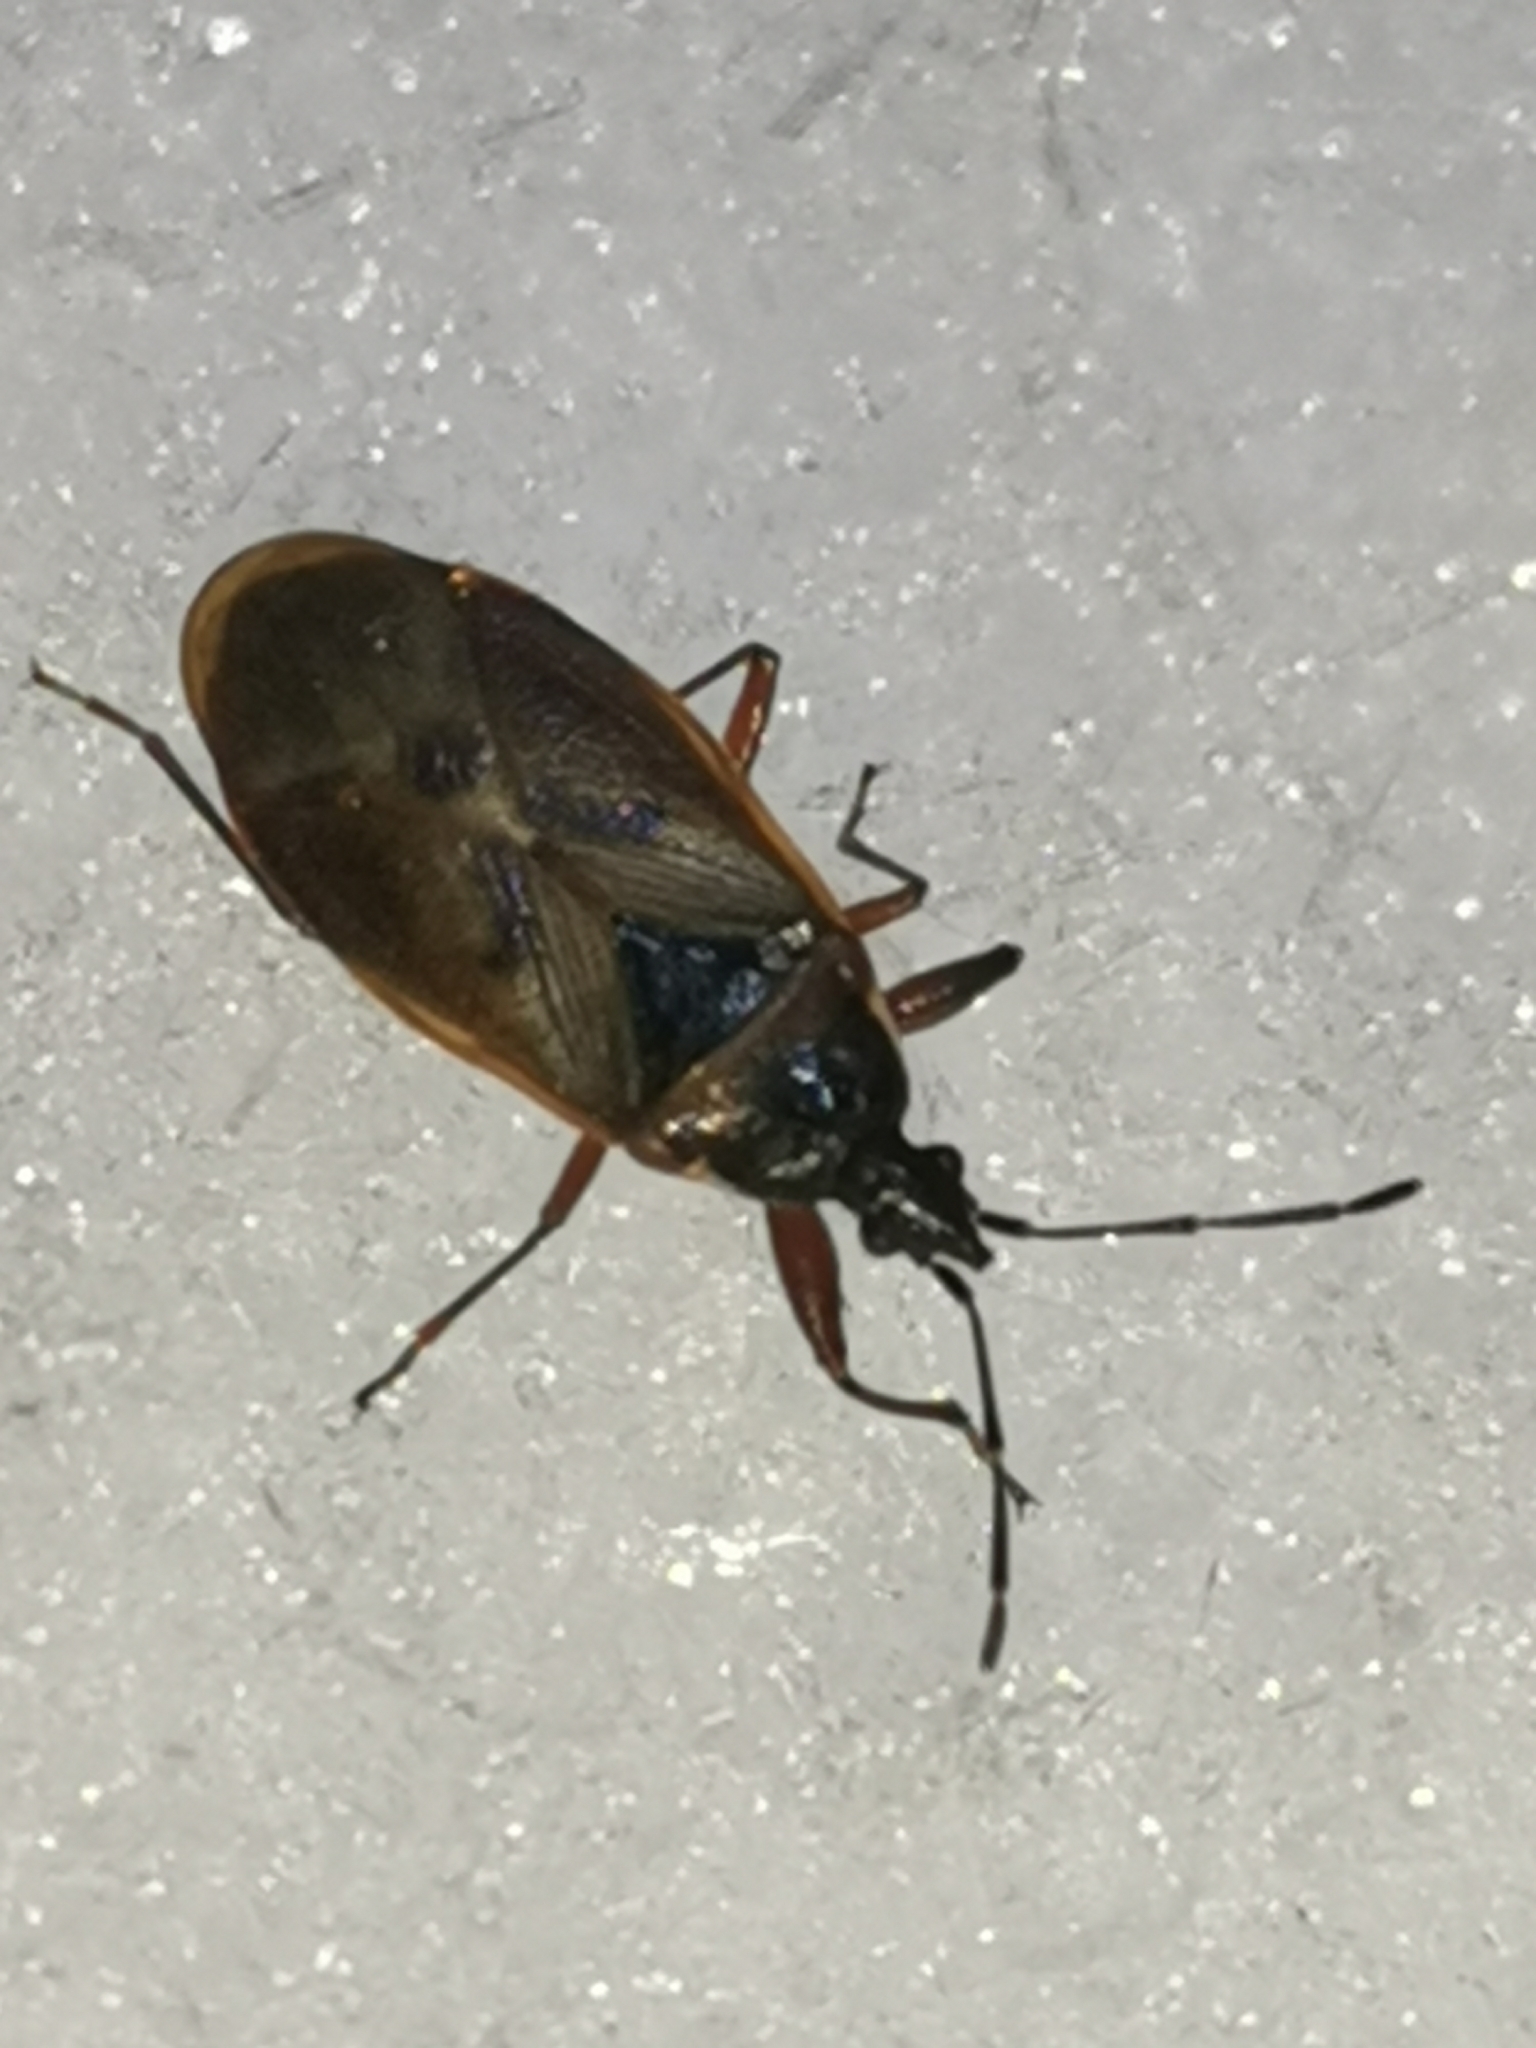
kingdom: Animalia
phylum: Arthropoda
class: Insecta
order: Hemiptera
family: Rhyparochromidae
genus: Gastrodes
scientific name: Gastrodes abietum
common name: Spruce cone bug
